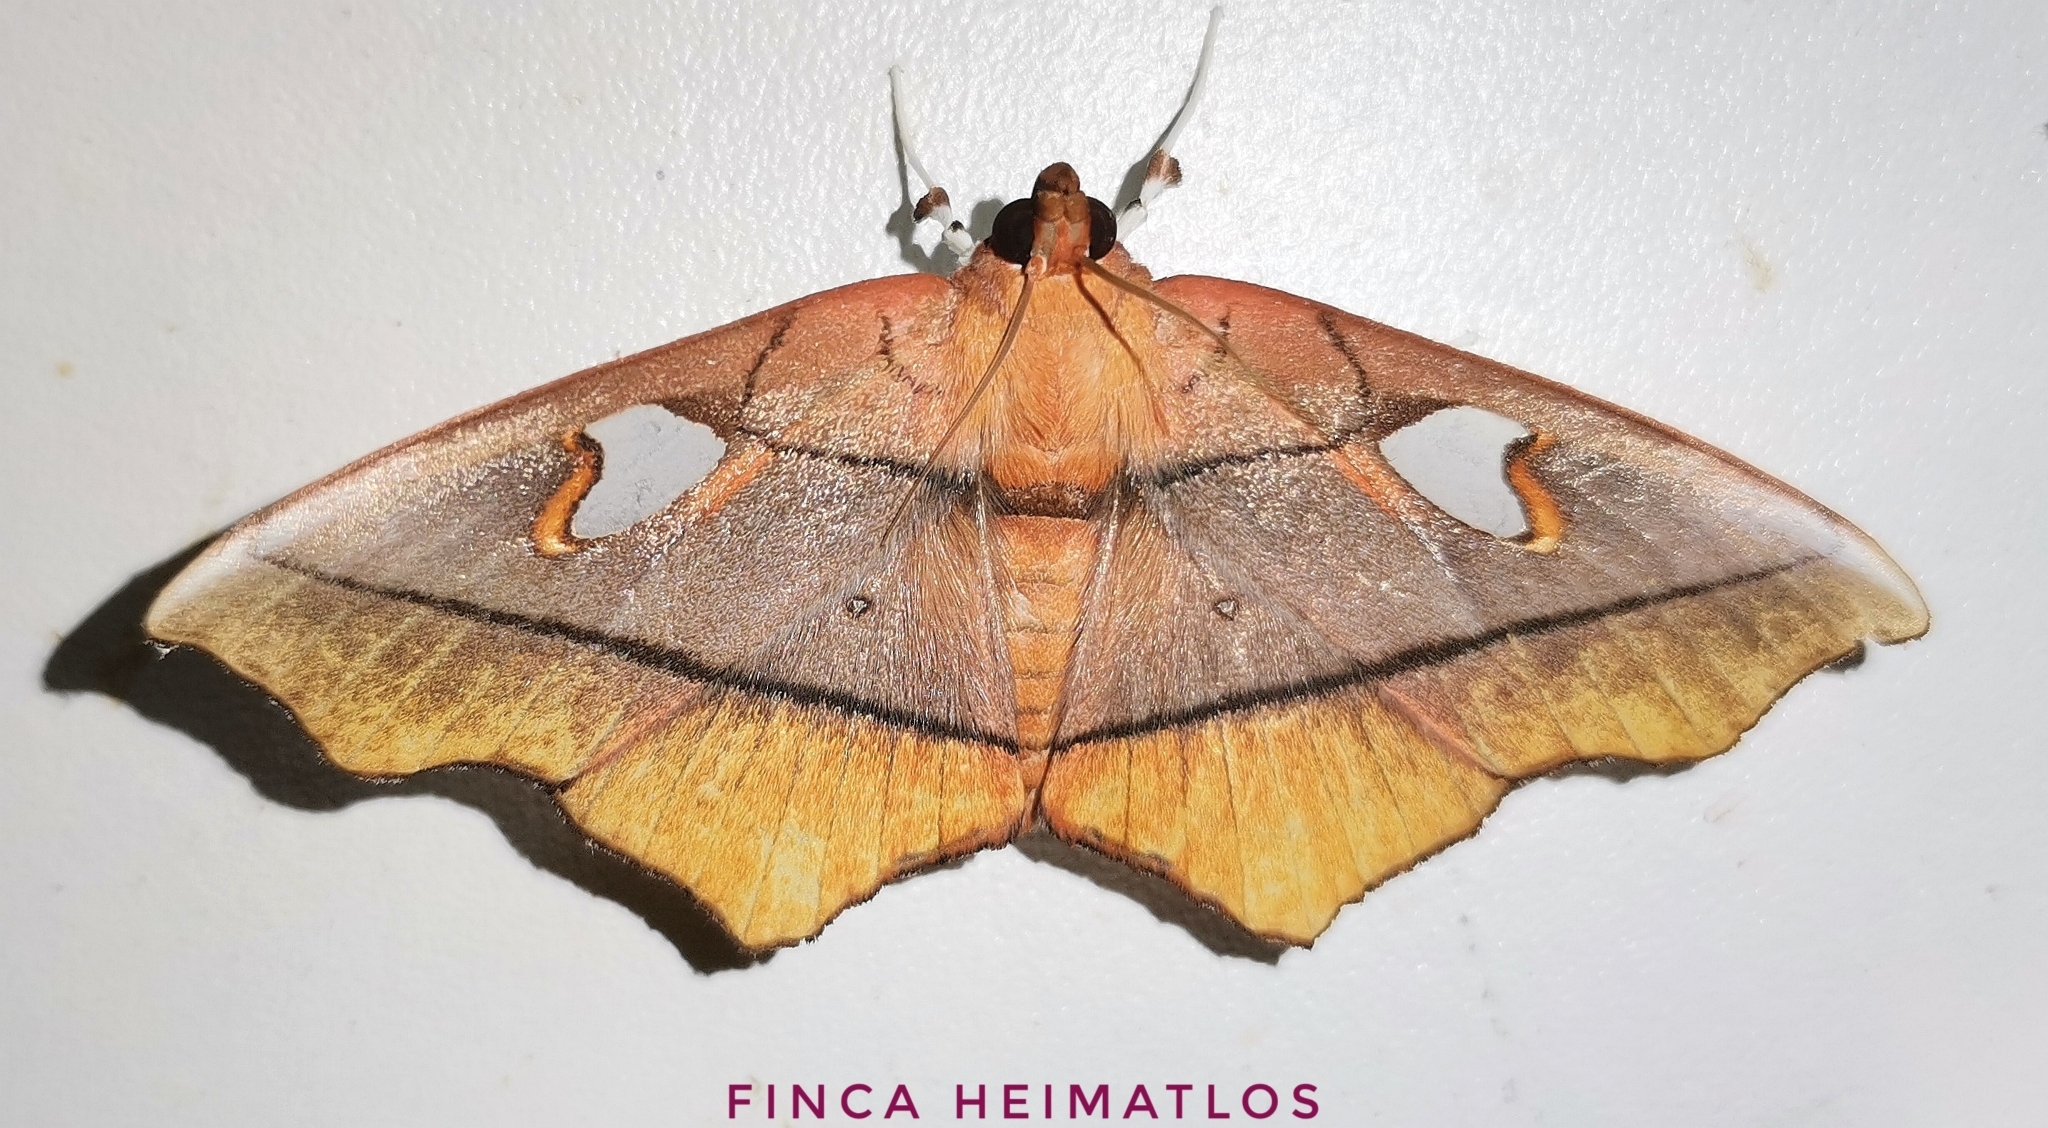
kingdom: Animalia
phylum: Arthropoda
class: Insecta
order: Lepidoptera
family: Crambidae
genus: Midila
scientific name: Midila poppaea
